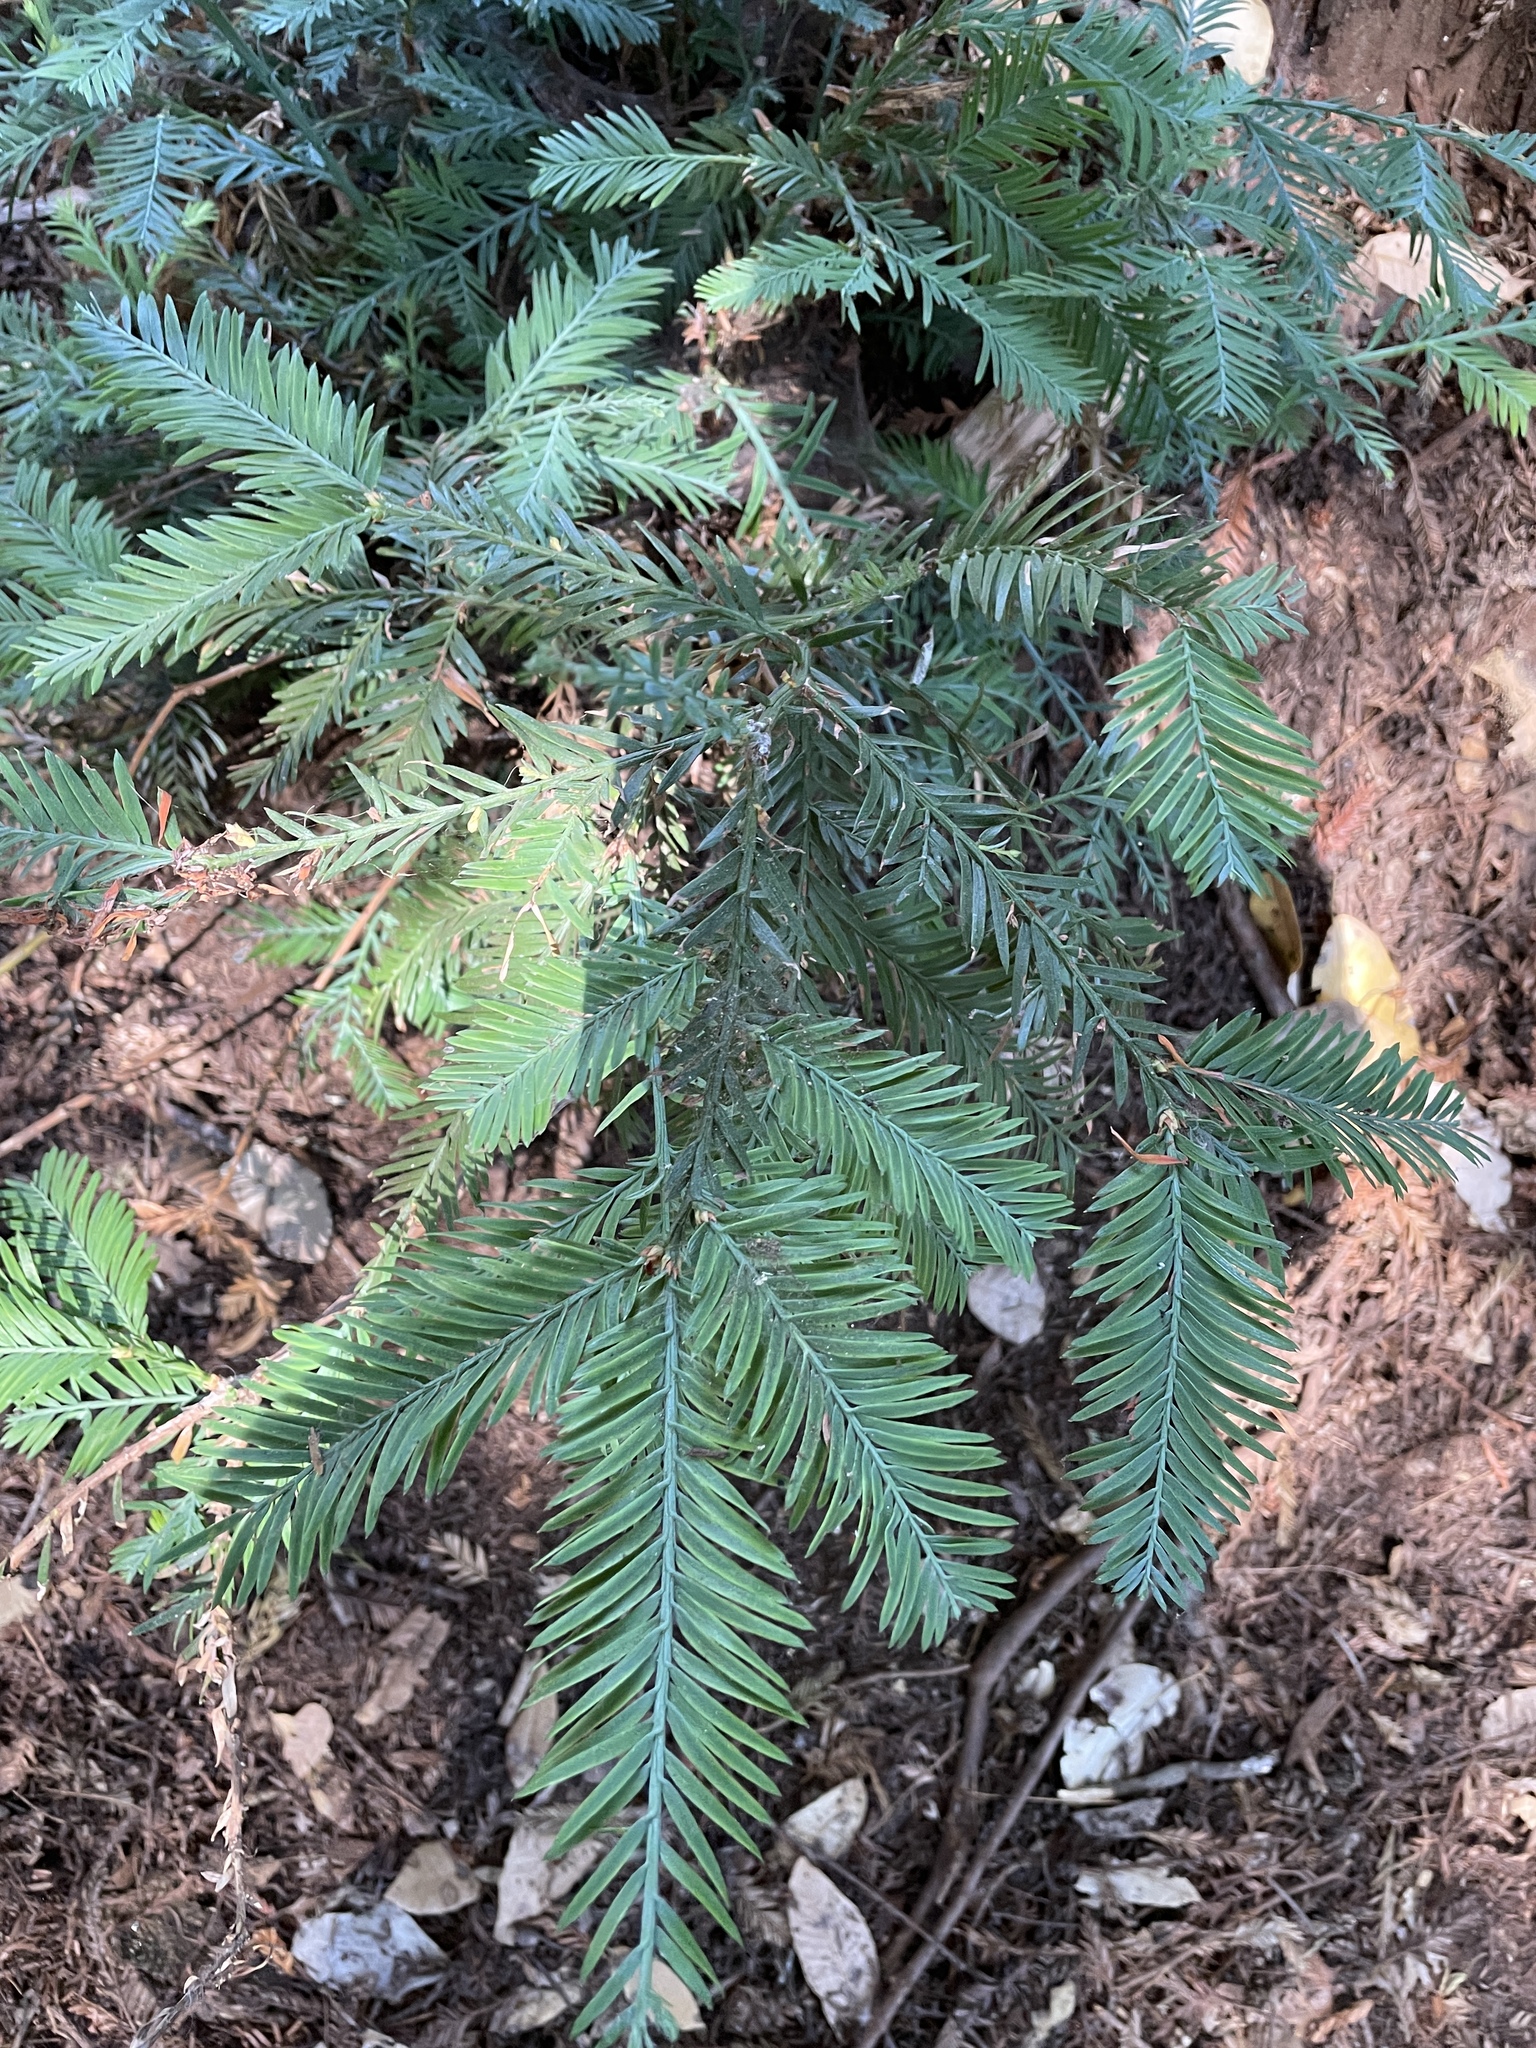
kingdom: Plantae
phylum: Tracheophyta
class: Pinopsida
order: Pinales
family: Cupressaceae
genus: Sequoia
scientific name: Sequoia sempervirens
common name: Coast redwood
